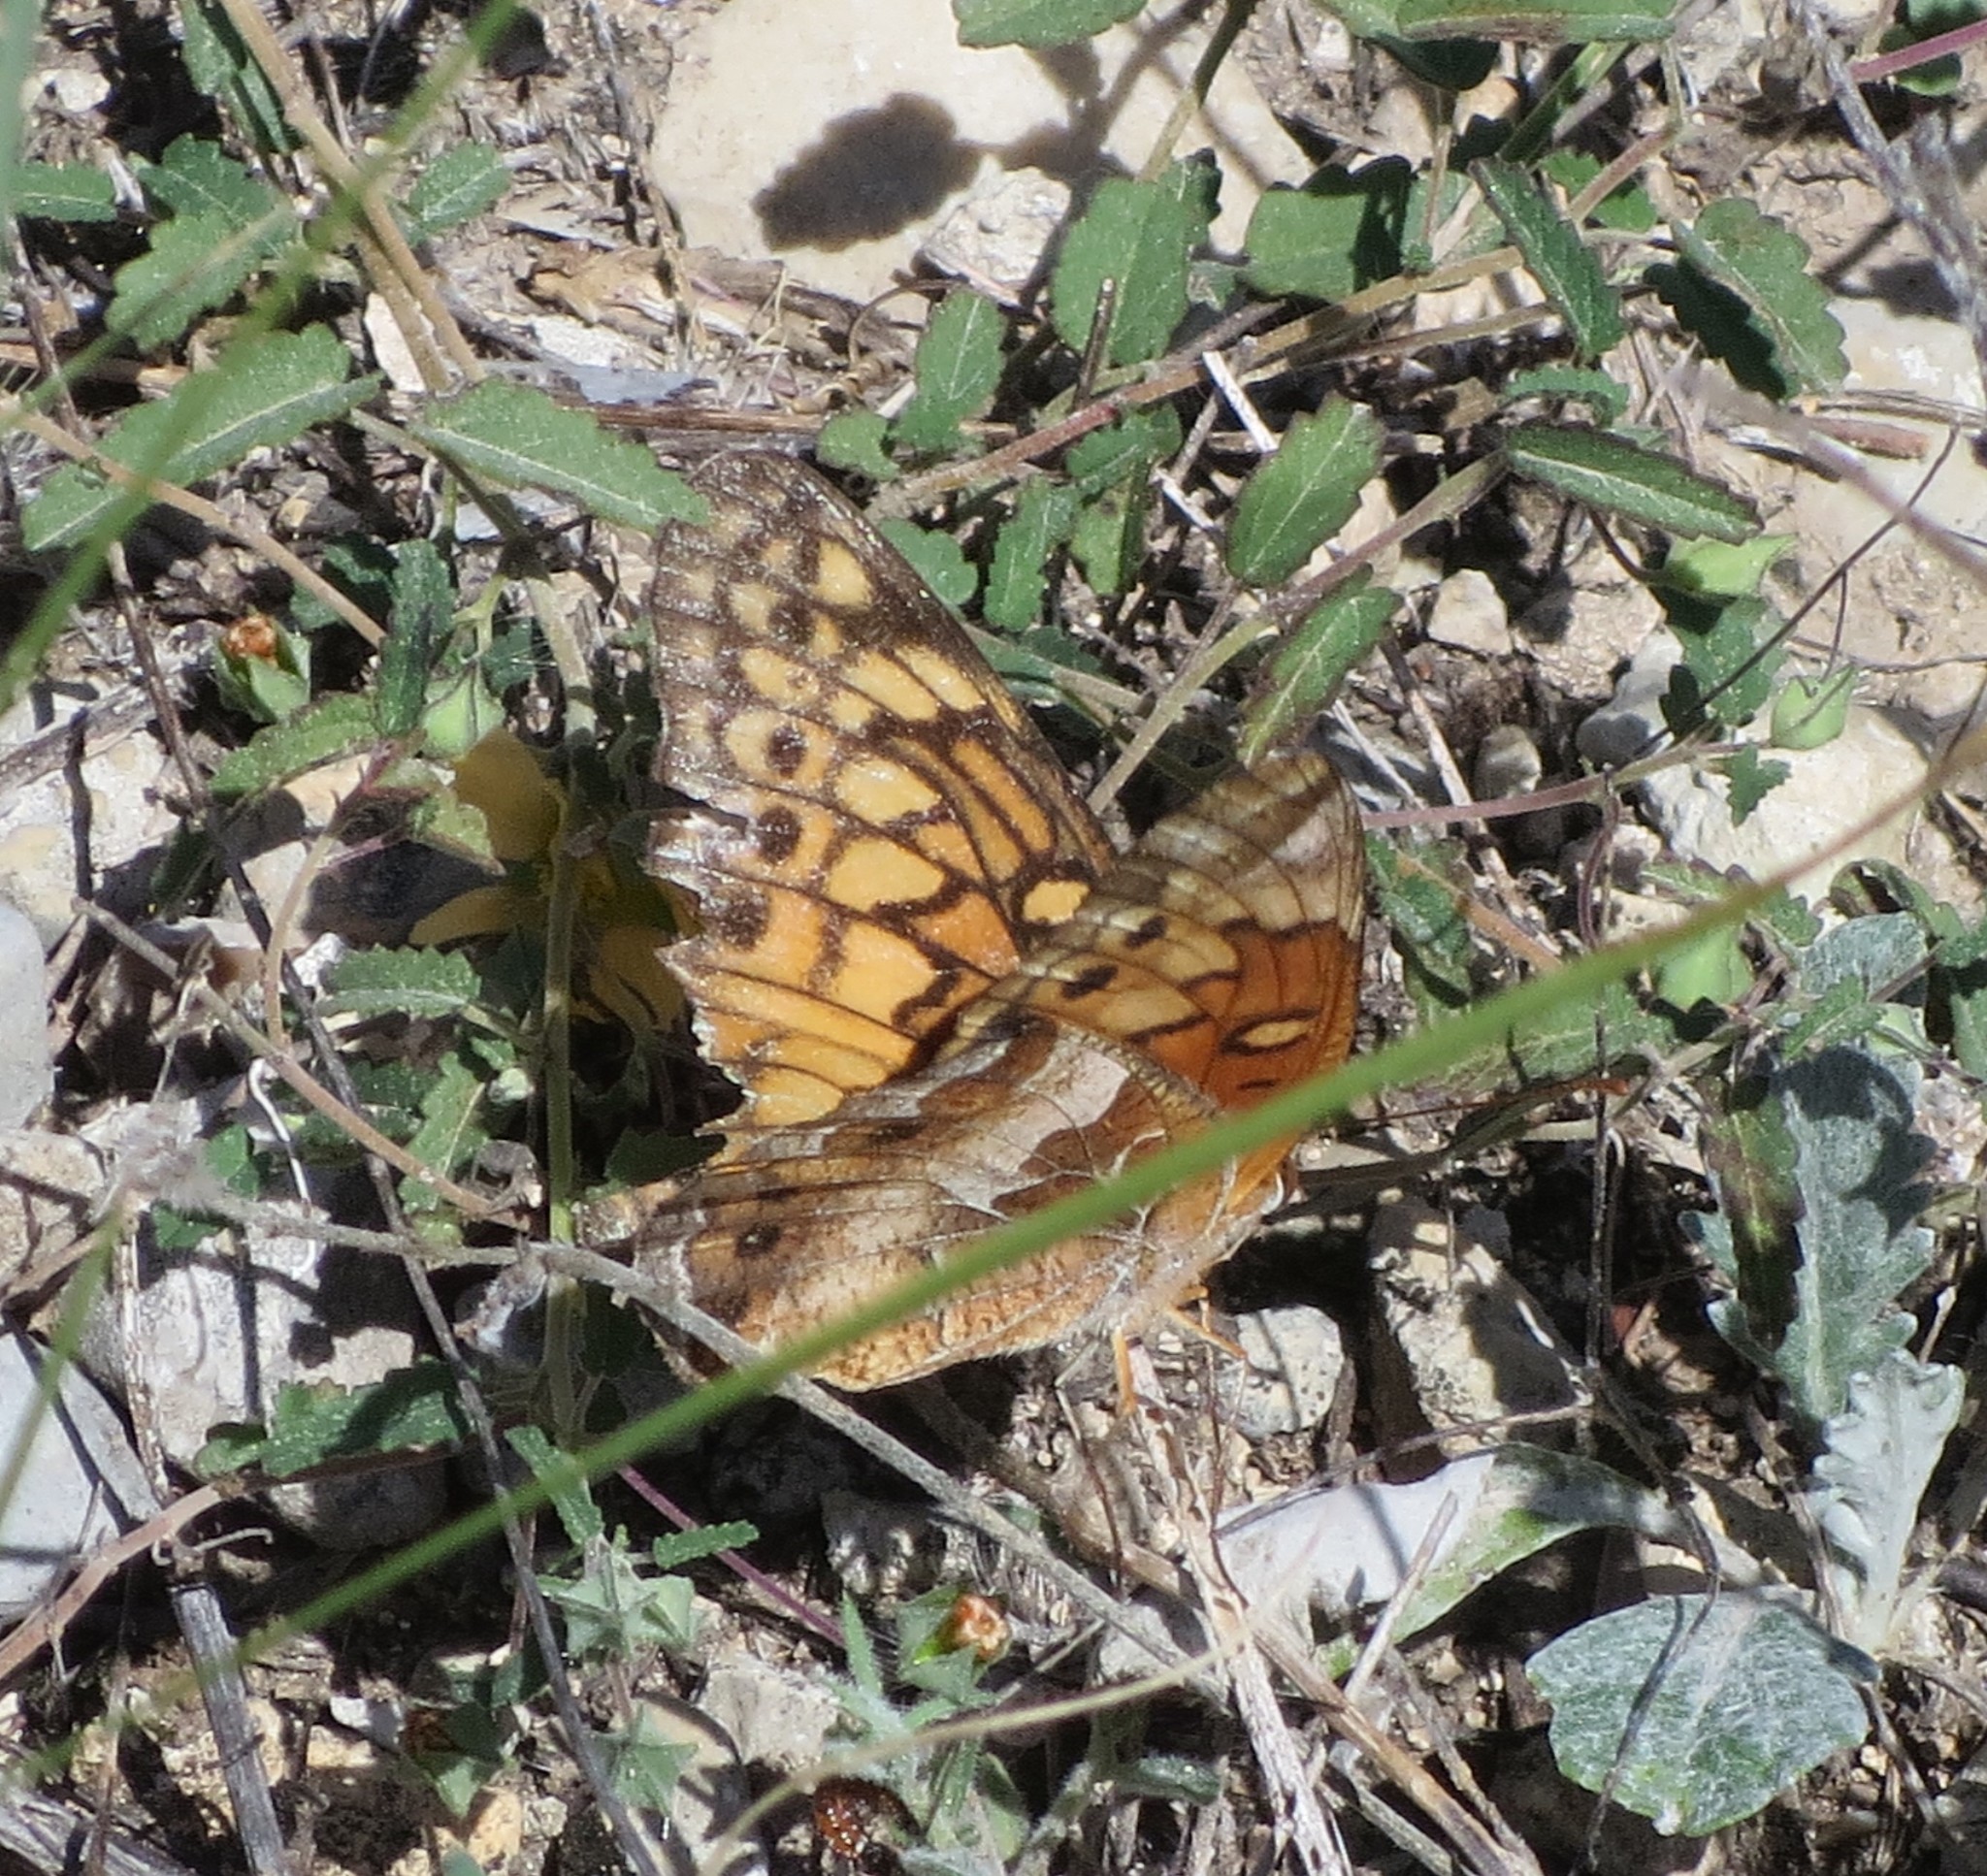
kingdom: Animalia
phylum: Arthropoda
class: Insecta
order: Lepidoptera
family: Nymphalidae
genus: Euptoieta
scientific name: Euptoieta claudia
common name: Variegated fritillary
